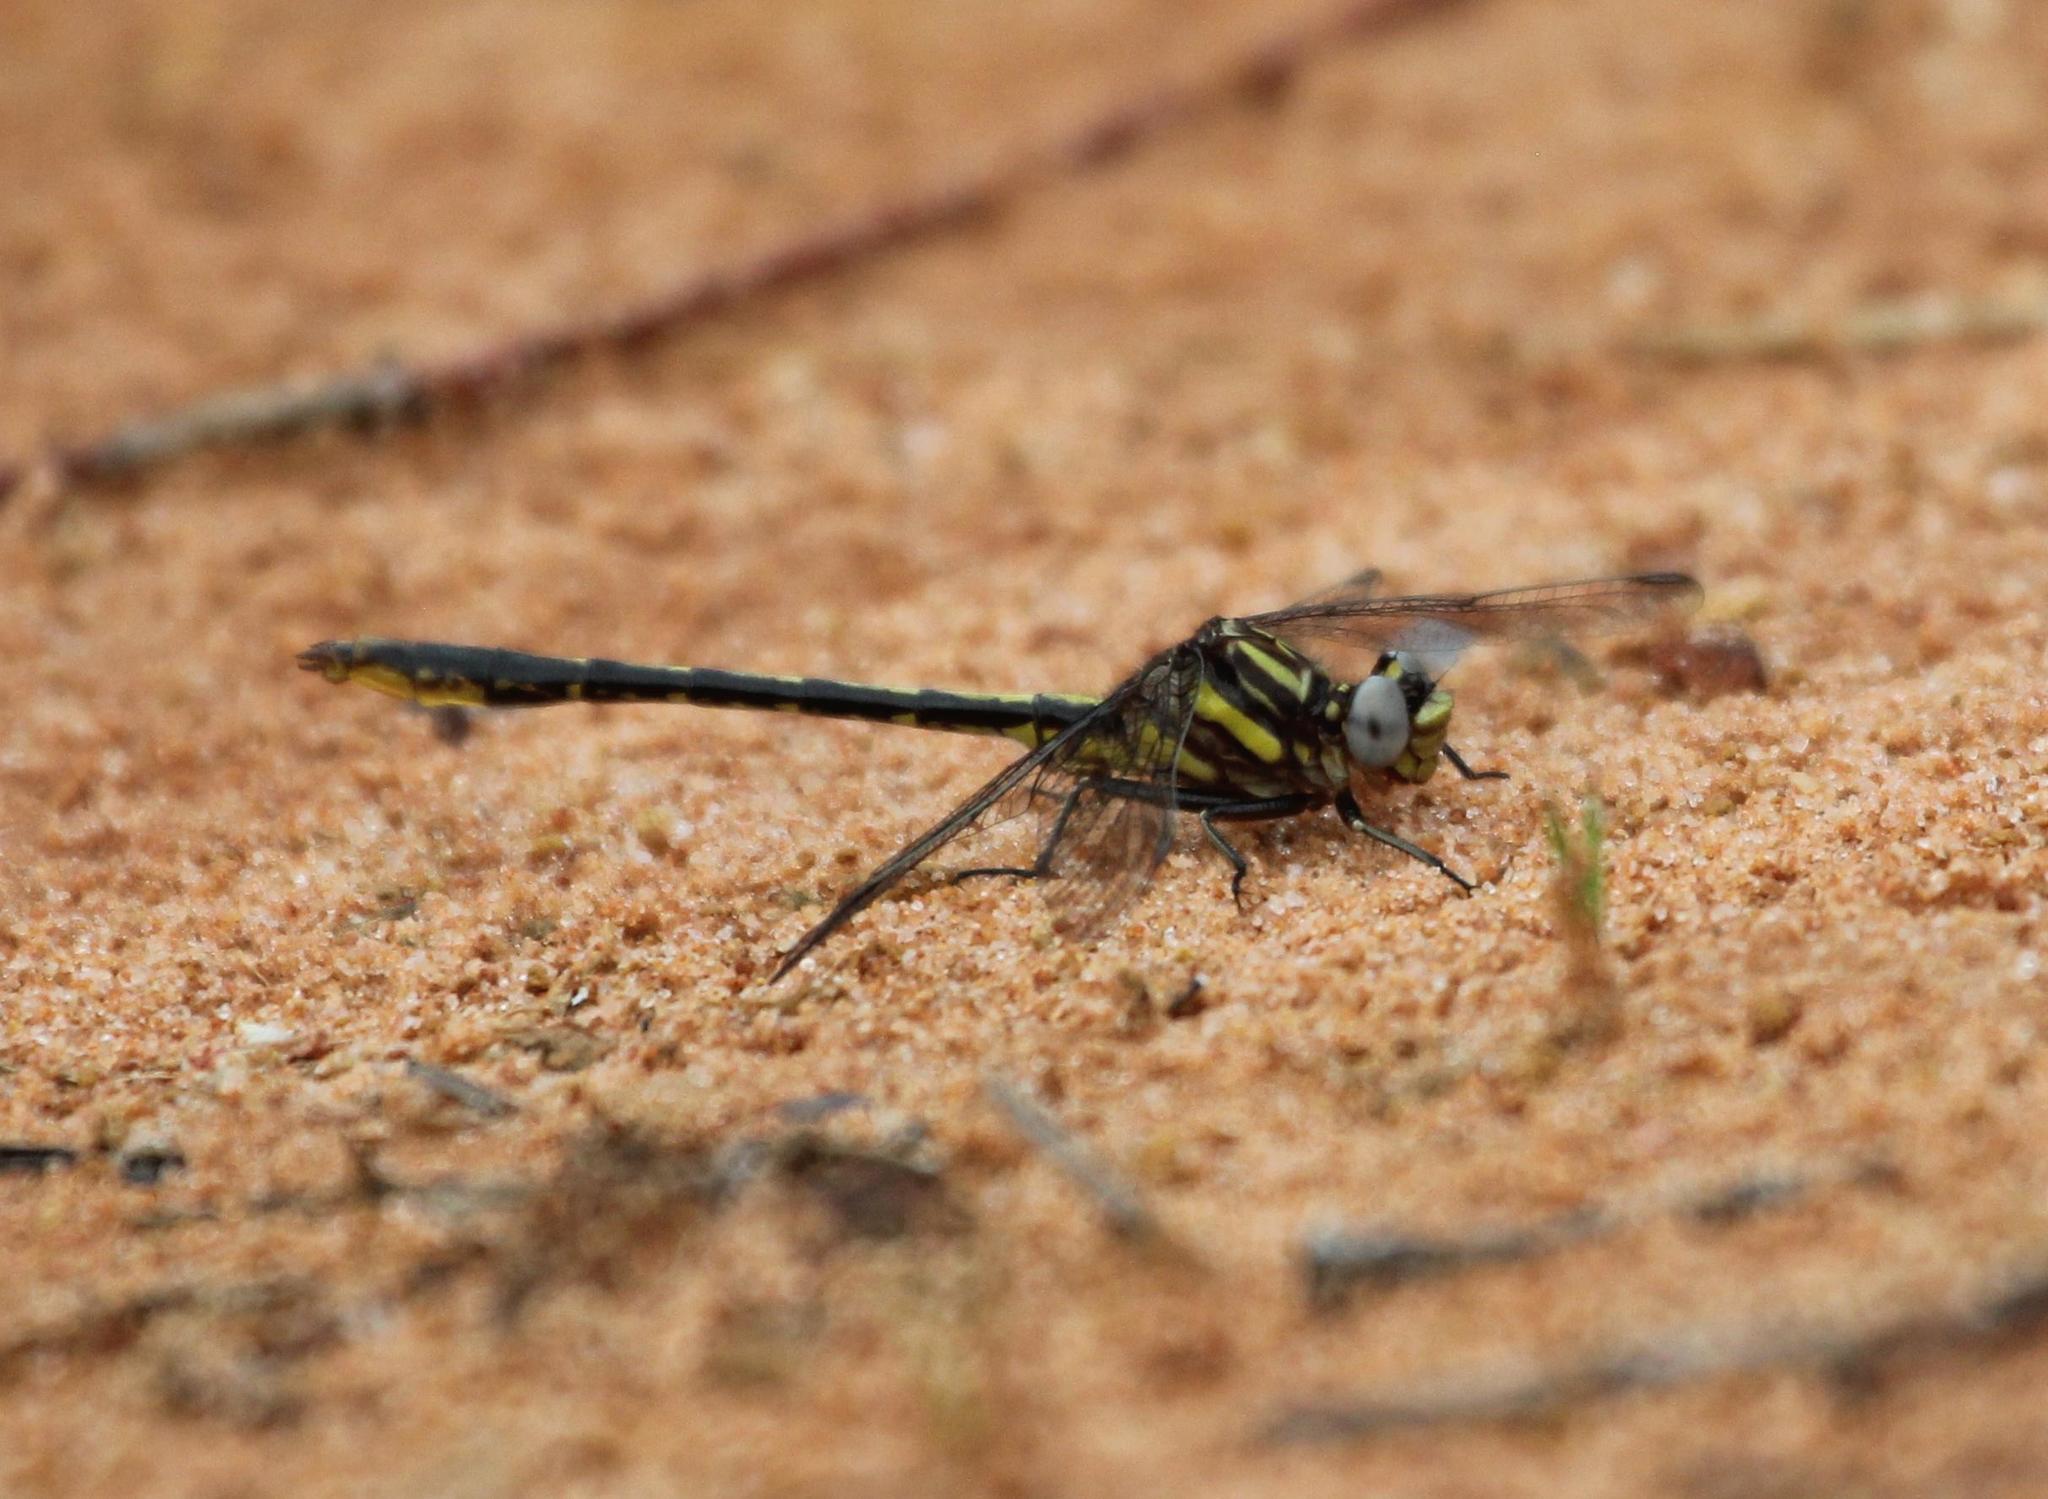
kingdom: Animalia
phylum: Arthropoda
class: Insecta
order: Odonata
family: Gomphidae
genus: Phanogomphus
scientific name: Phanogomphus exilis
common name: Lancet clubtail
